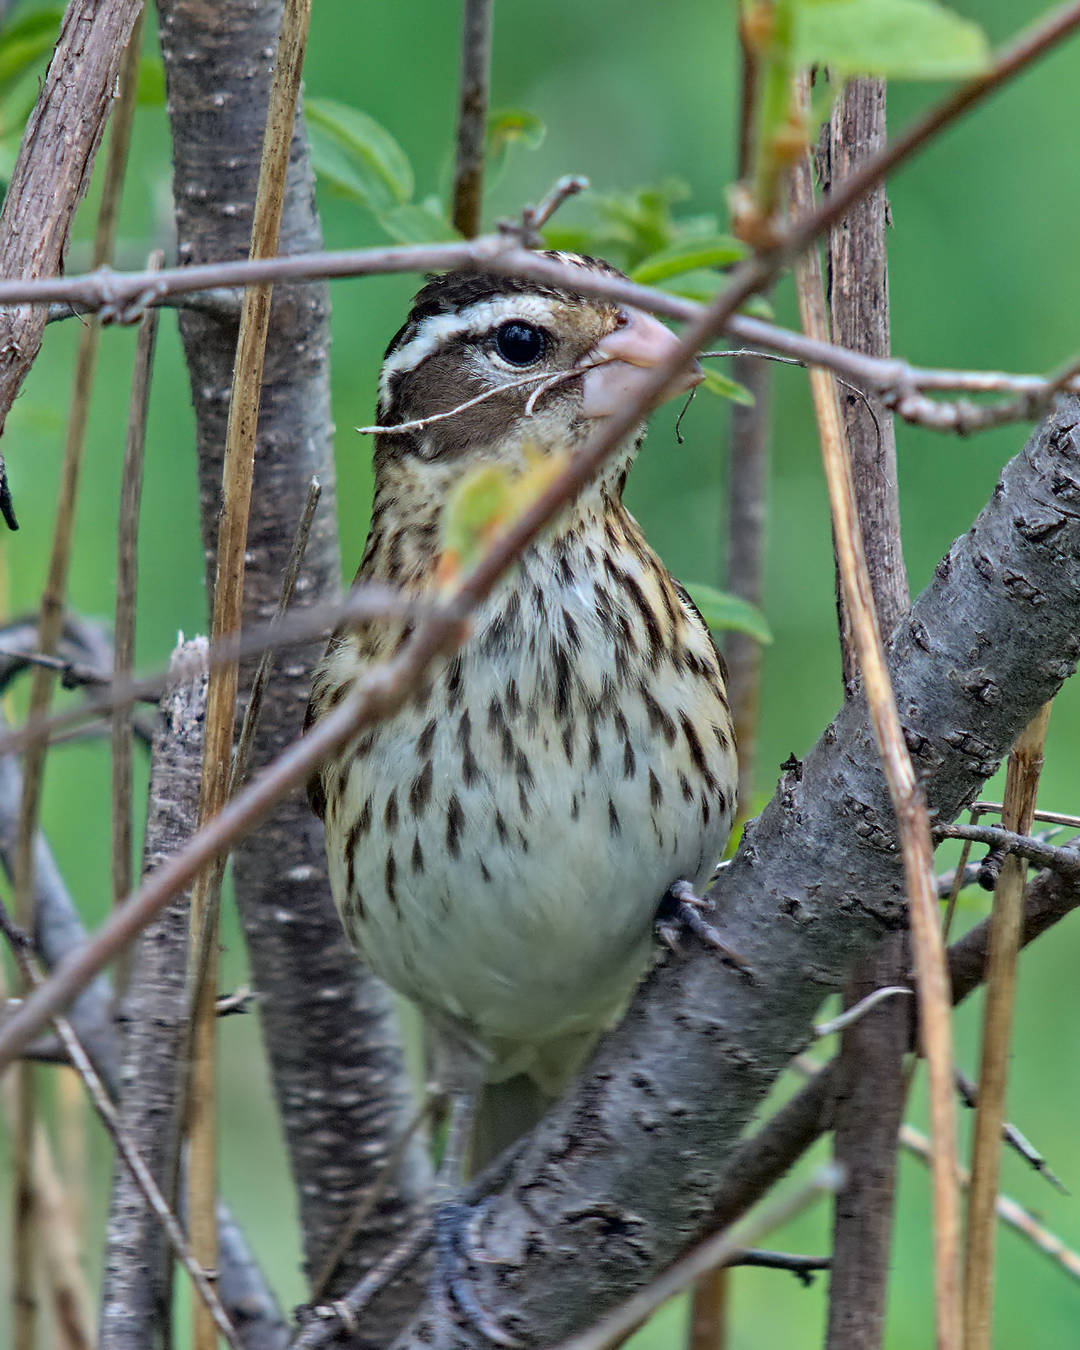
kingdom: Animalia
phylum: Chordata
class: Aves
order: Passeriformes
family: Cardinalidae
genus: Pheucticus
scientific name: Pheucticus ludovicianus
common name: Rose-breasted grosbeak
